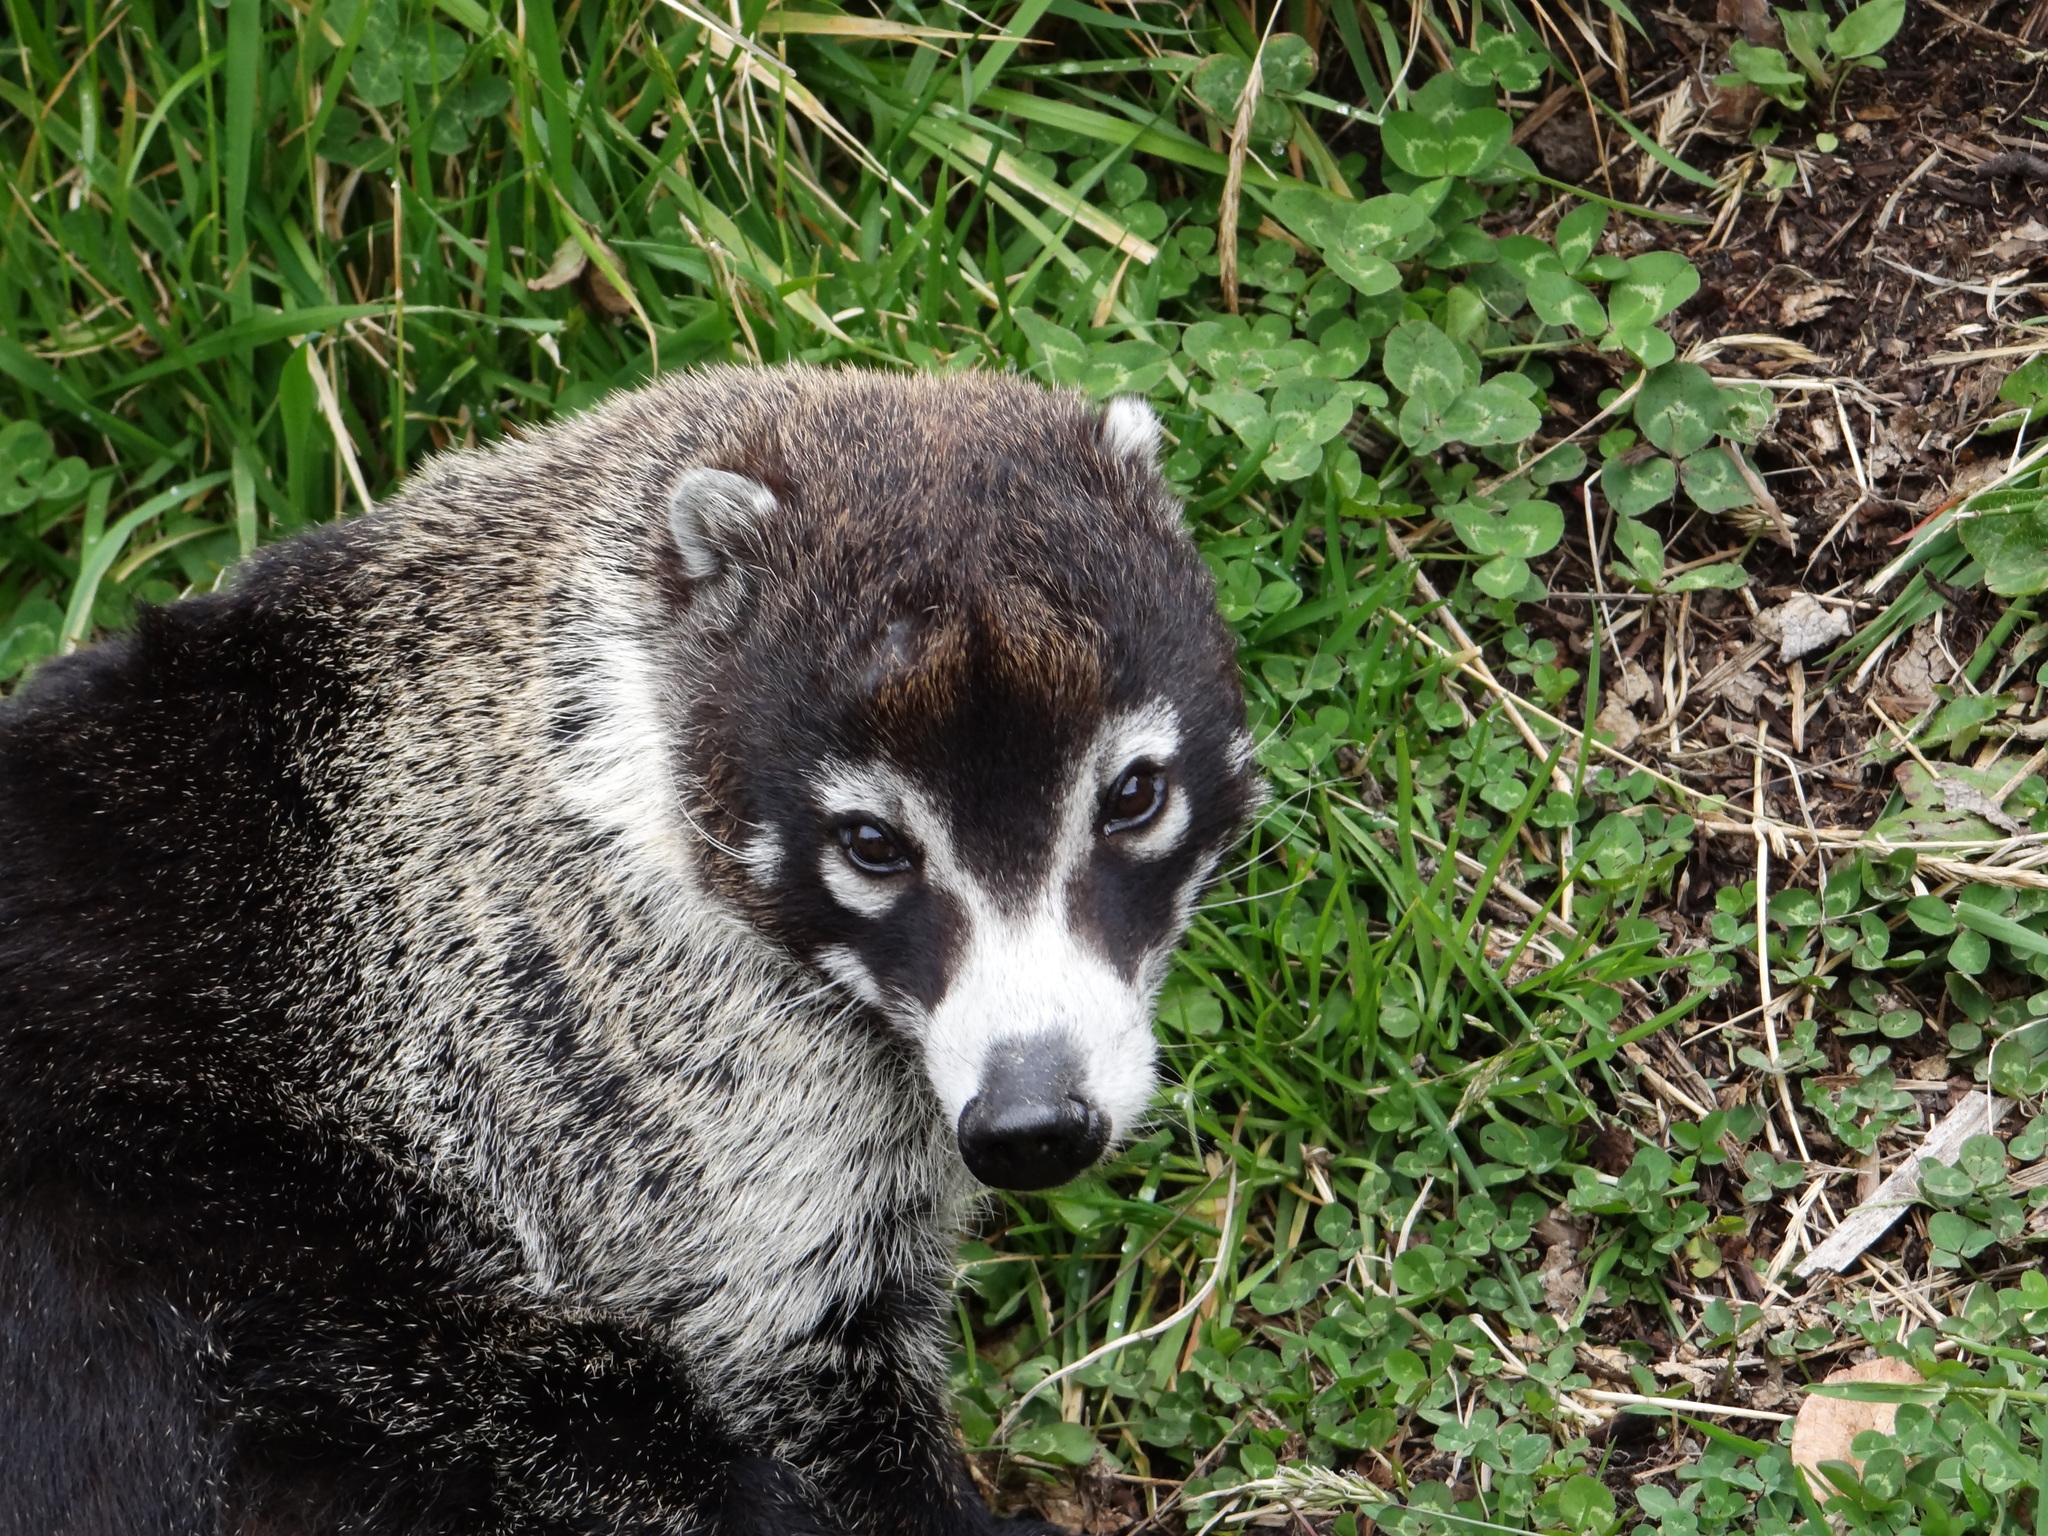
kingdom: Animalia
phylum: Chordata
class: Mammalia
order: Carnivora
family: Procyonidae
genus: Nasua
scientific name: Nasua narica
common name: White-nosed coati
